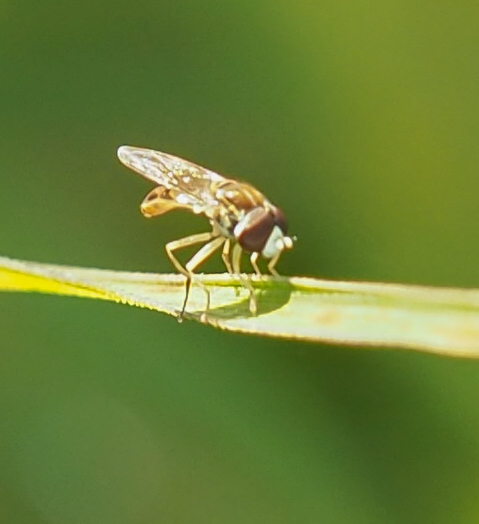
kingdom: Animalia
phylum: Arthropoda
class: Insecta
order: Diptera
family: Syrphidae
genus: Toxomerus
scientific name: Toxomerus marginatus
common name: Syrphid fly
